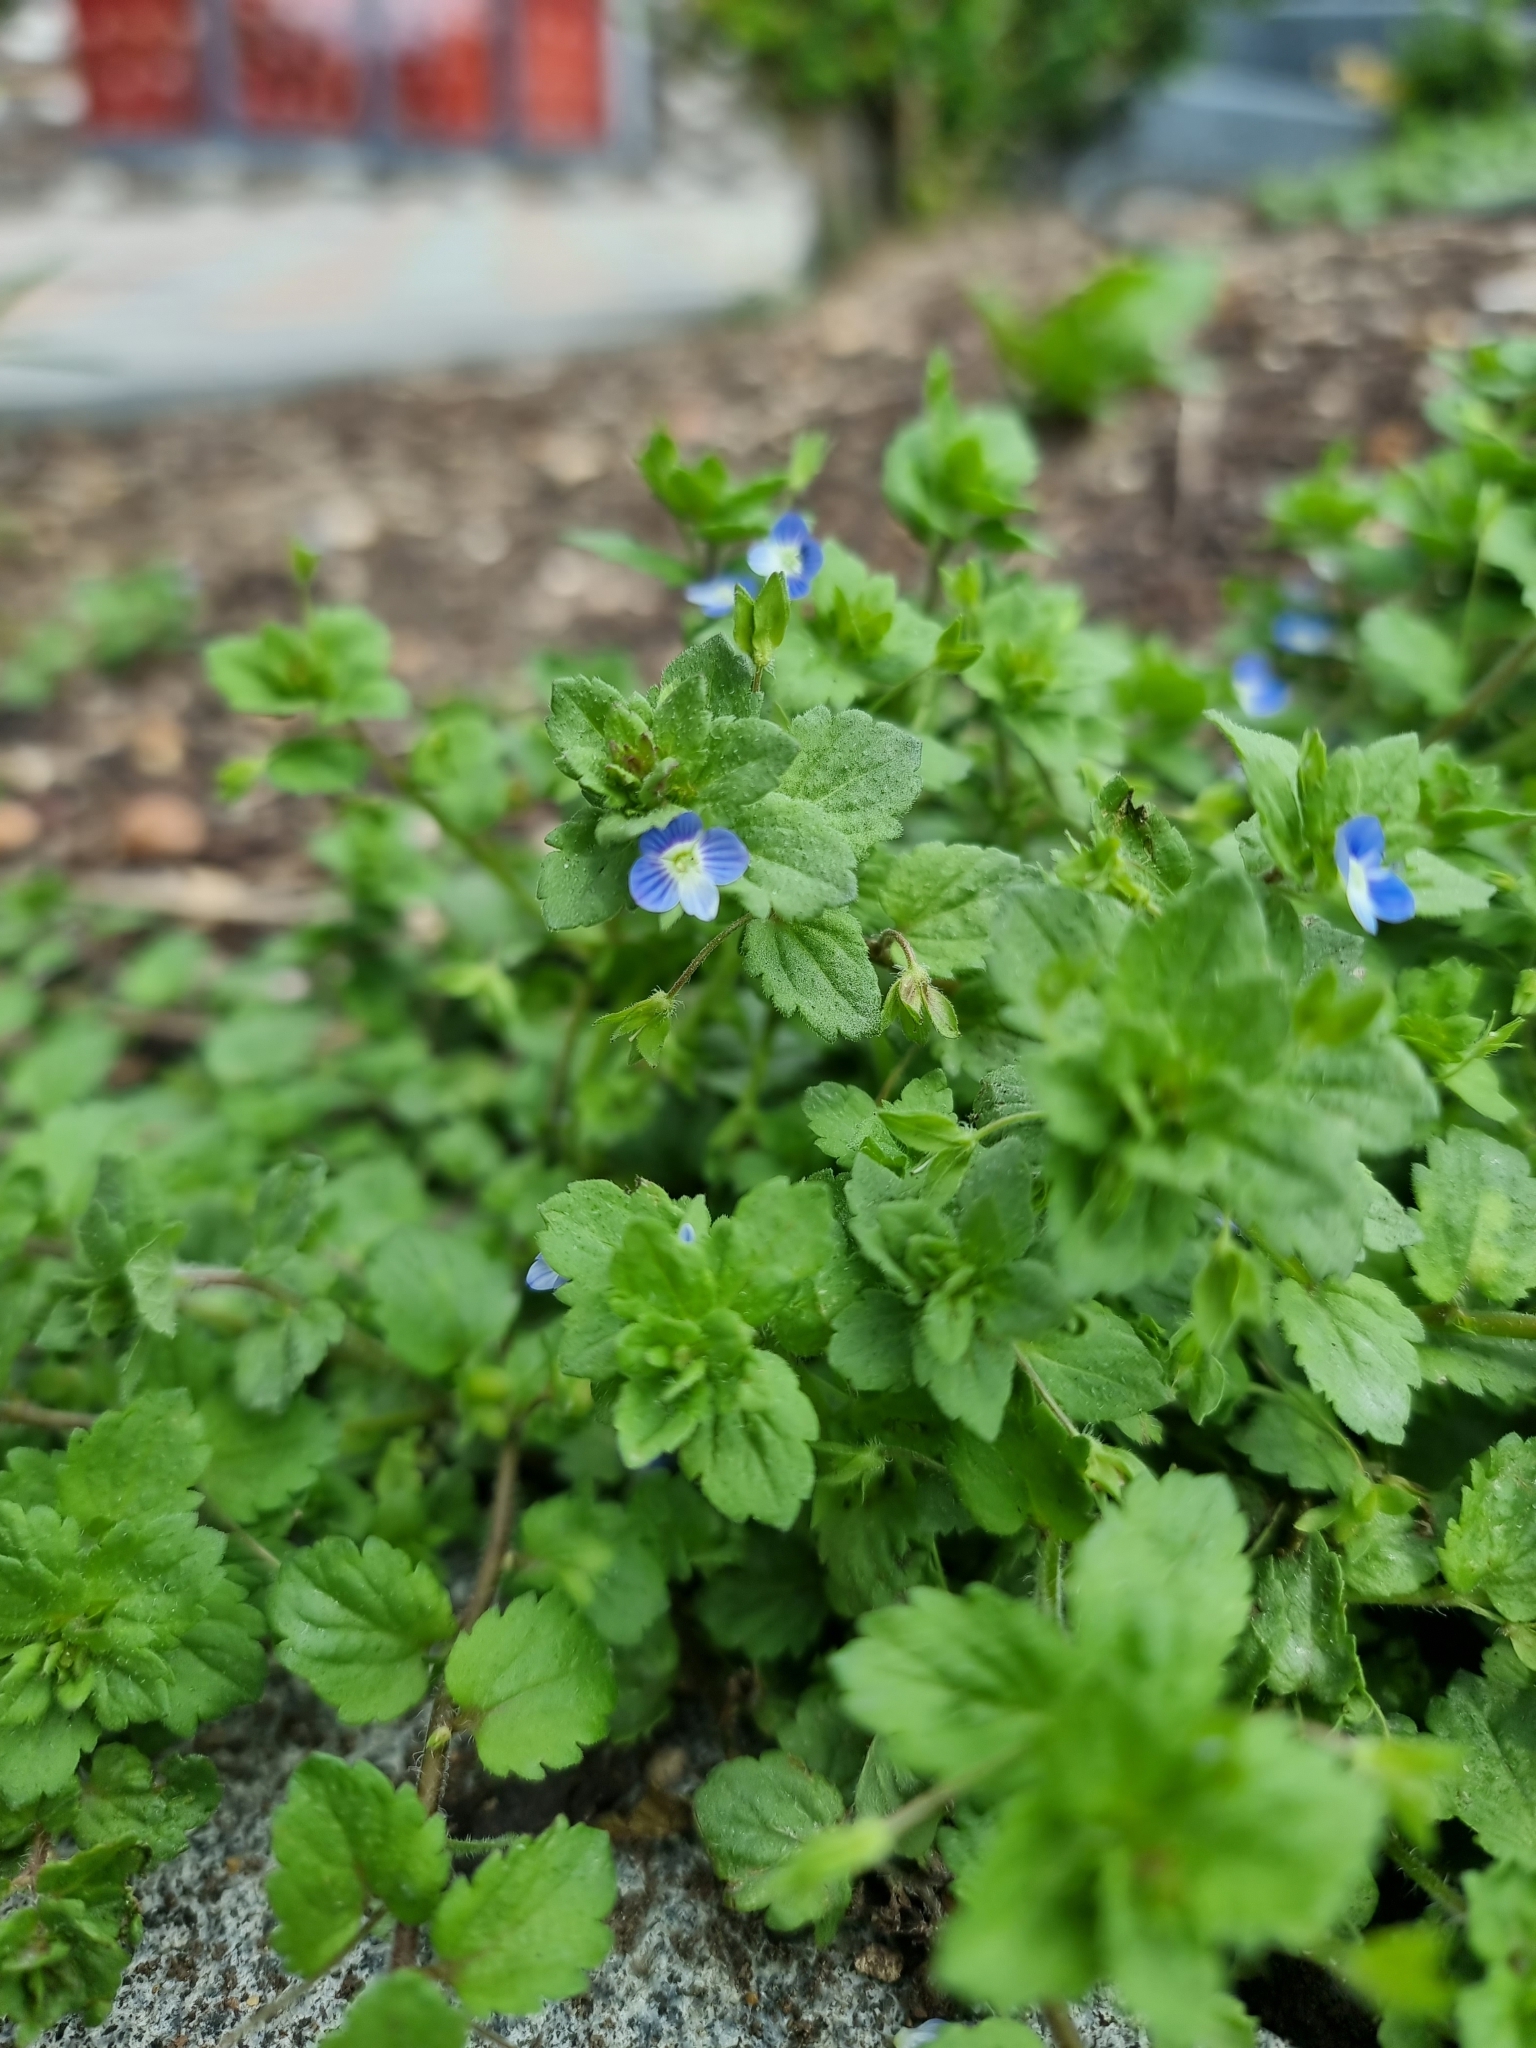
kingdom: Plantae
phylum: Tracheophyta
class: Magnoliopsida
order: Lamiales
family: Plantaginaceae
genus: Veronica
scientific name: Veronica persica
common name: Common field-speedwell
